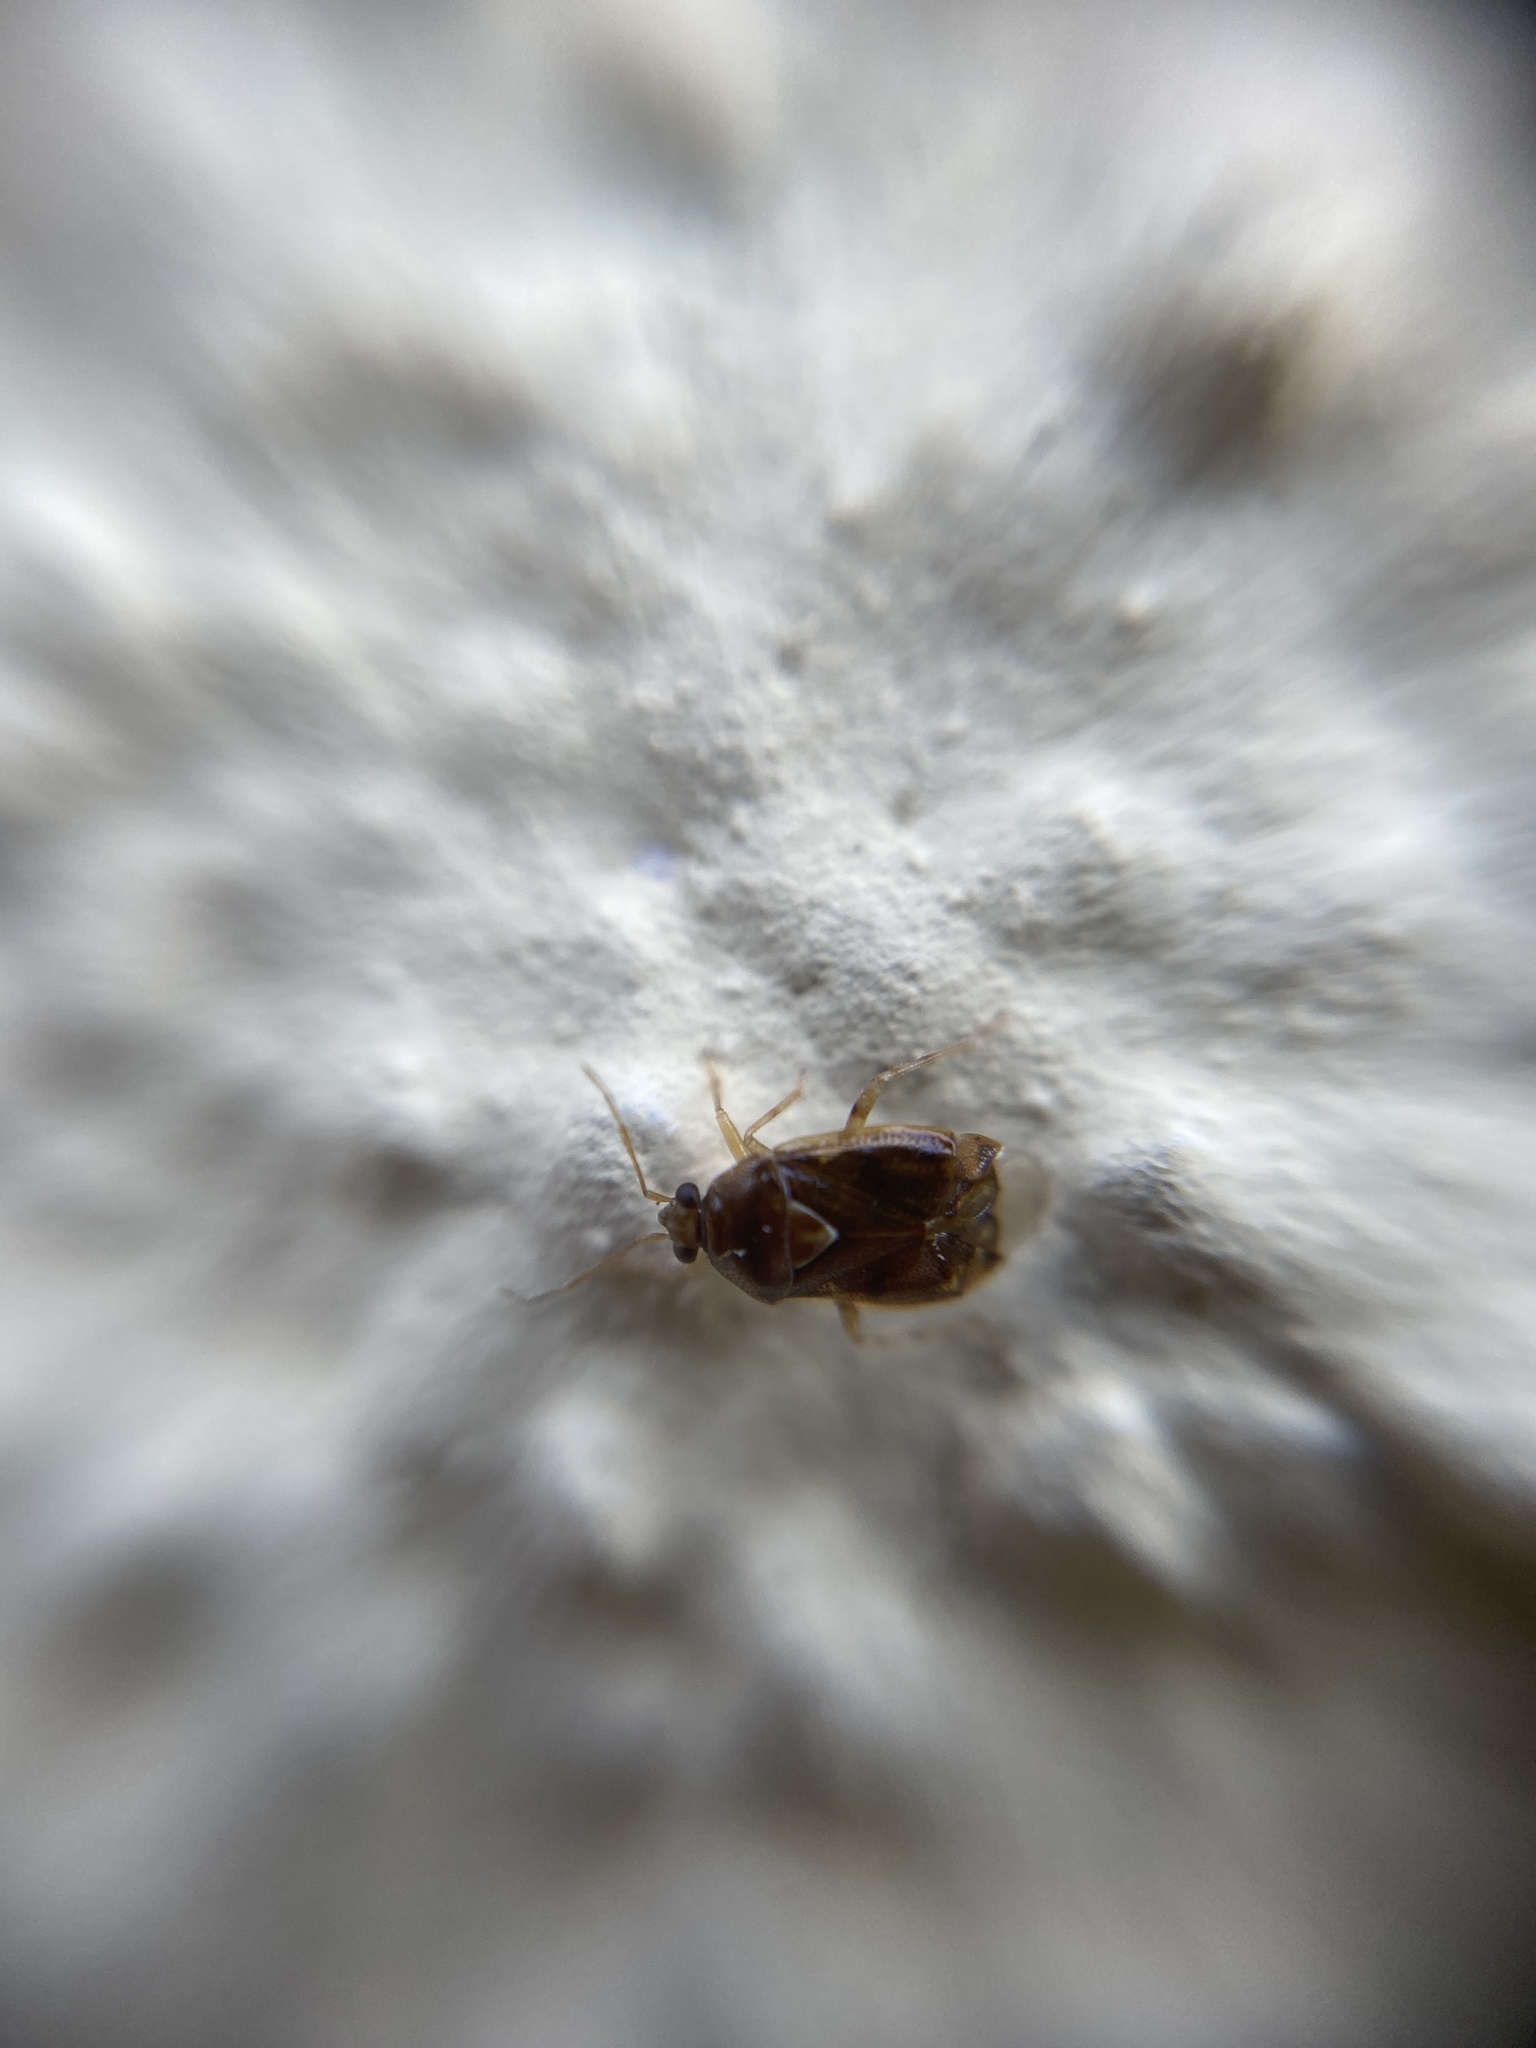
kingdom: Animalia
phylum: Arthropoda
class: Insecta
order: Hemiptera
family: Miridae
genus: Deraeocoris
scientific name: Deraeocoris lutescens
